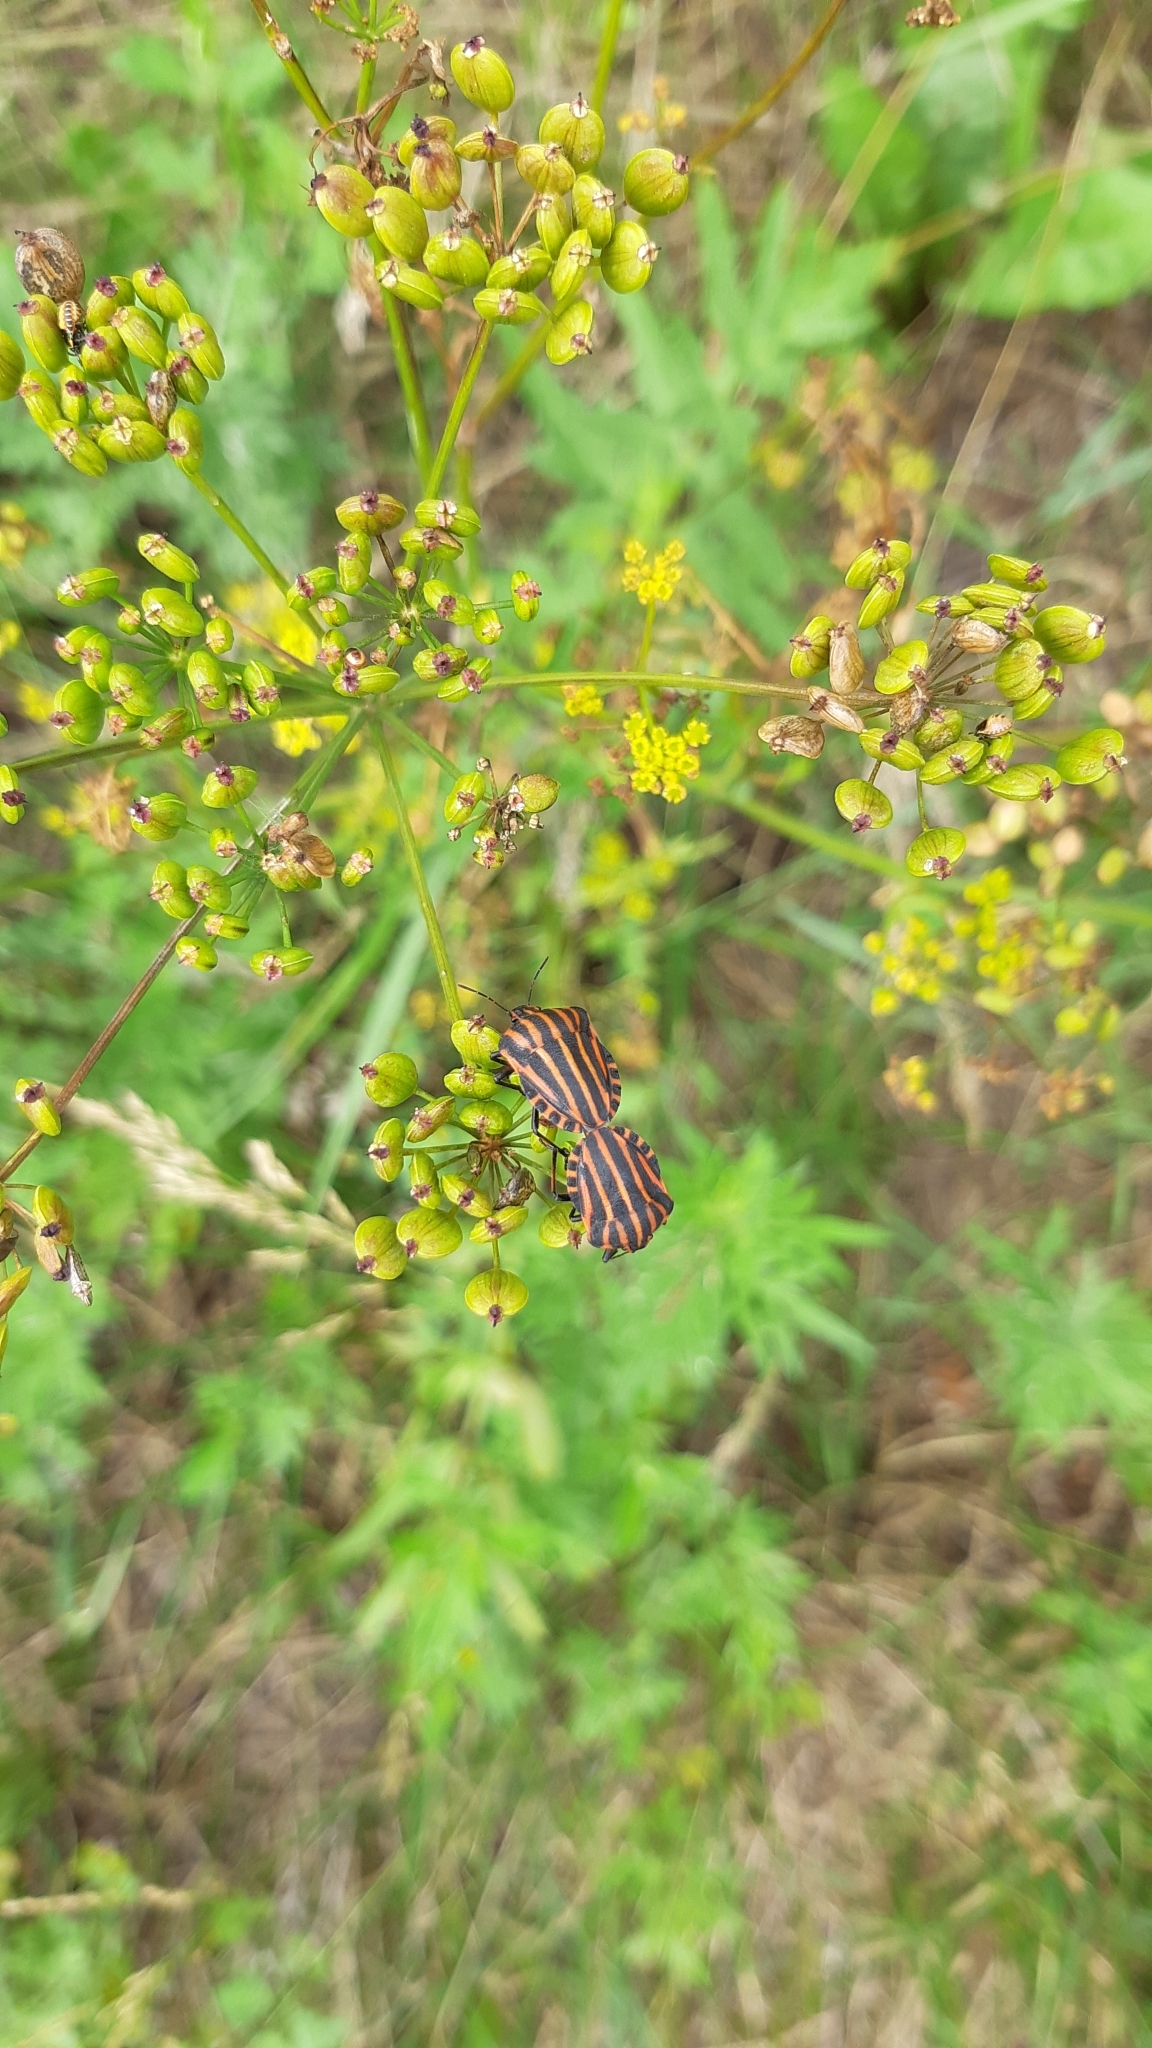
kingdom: Animalia
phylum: Arthropoda
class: Insecta
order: Hemiptera
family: Pentatomidae
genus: Graphosoma
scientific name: Graphosoma italicum
